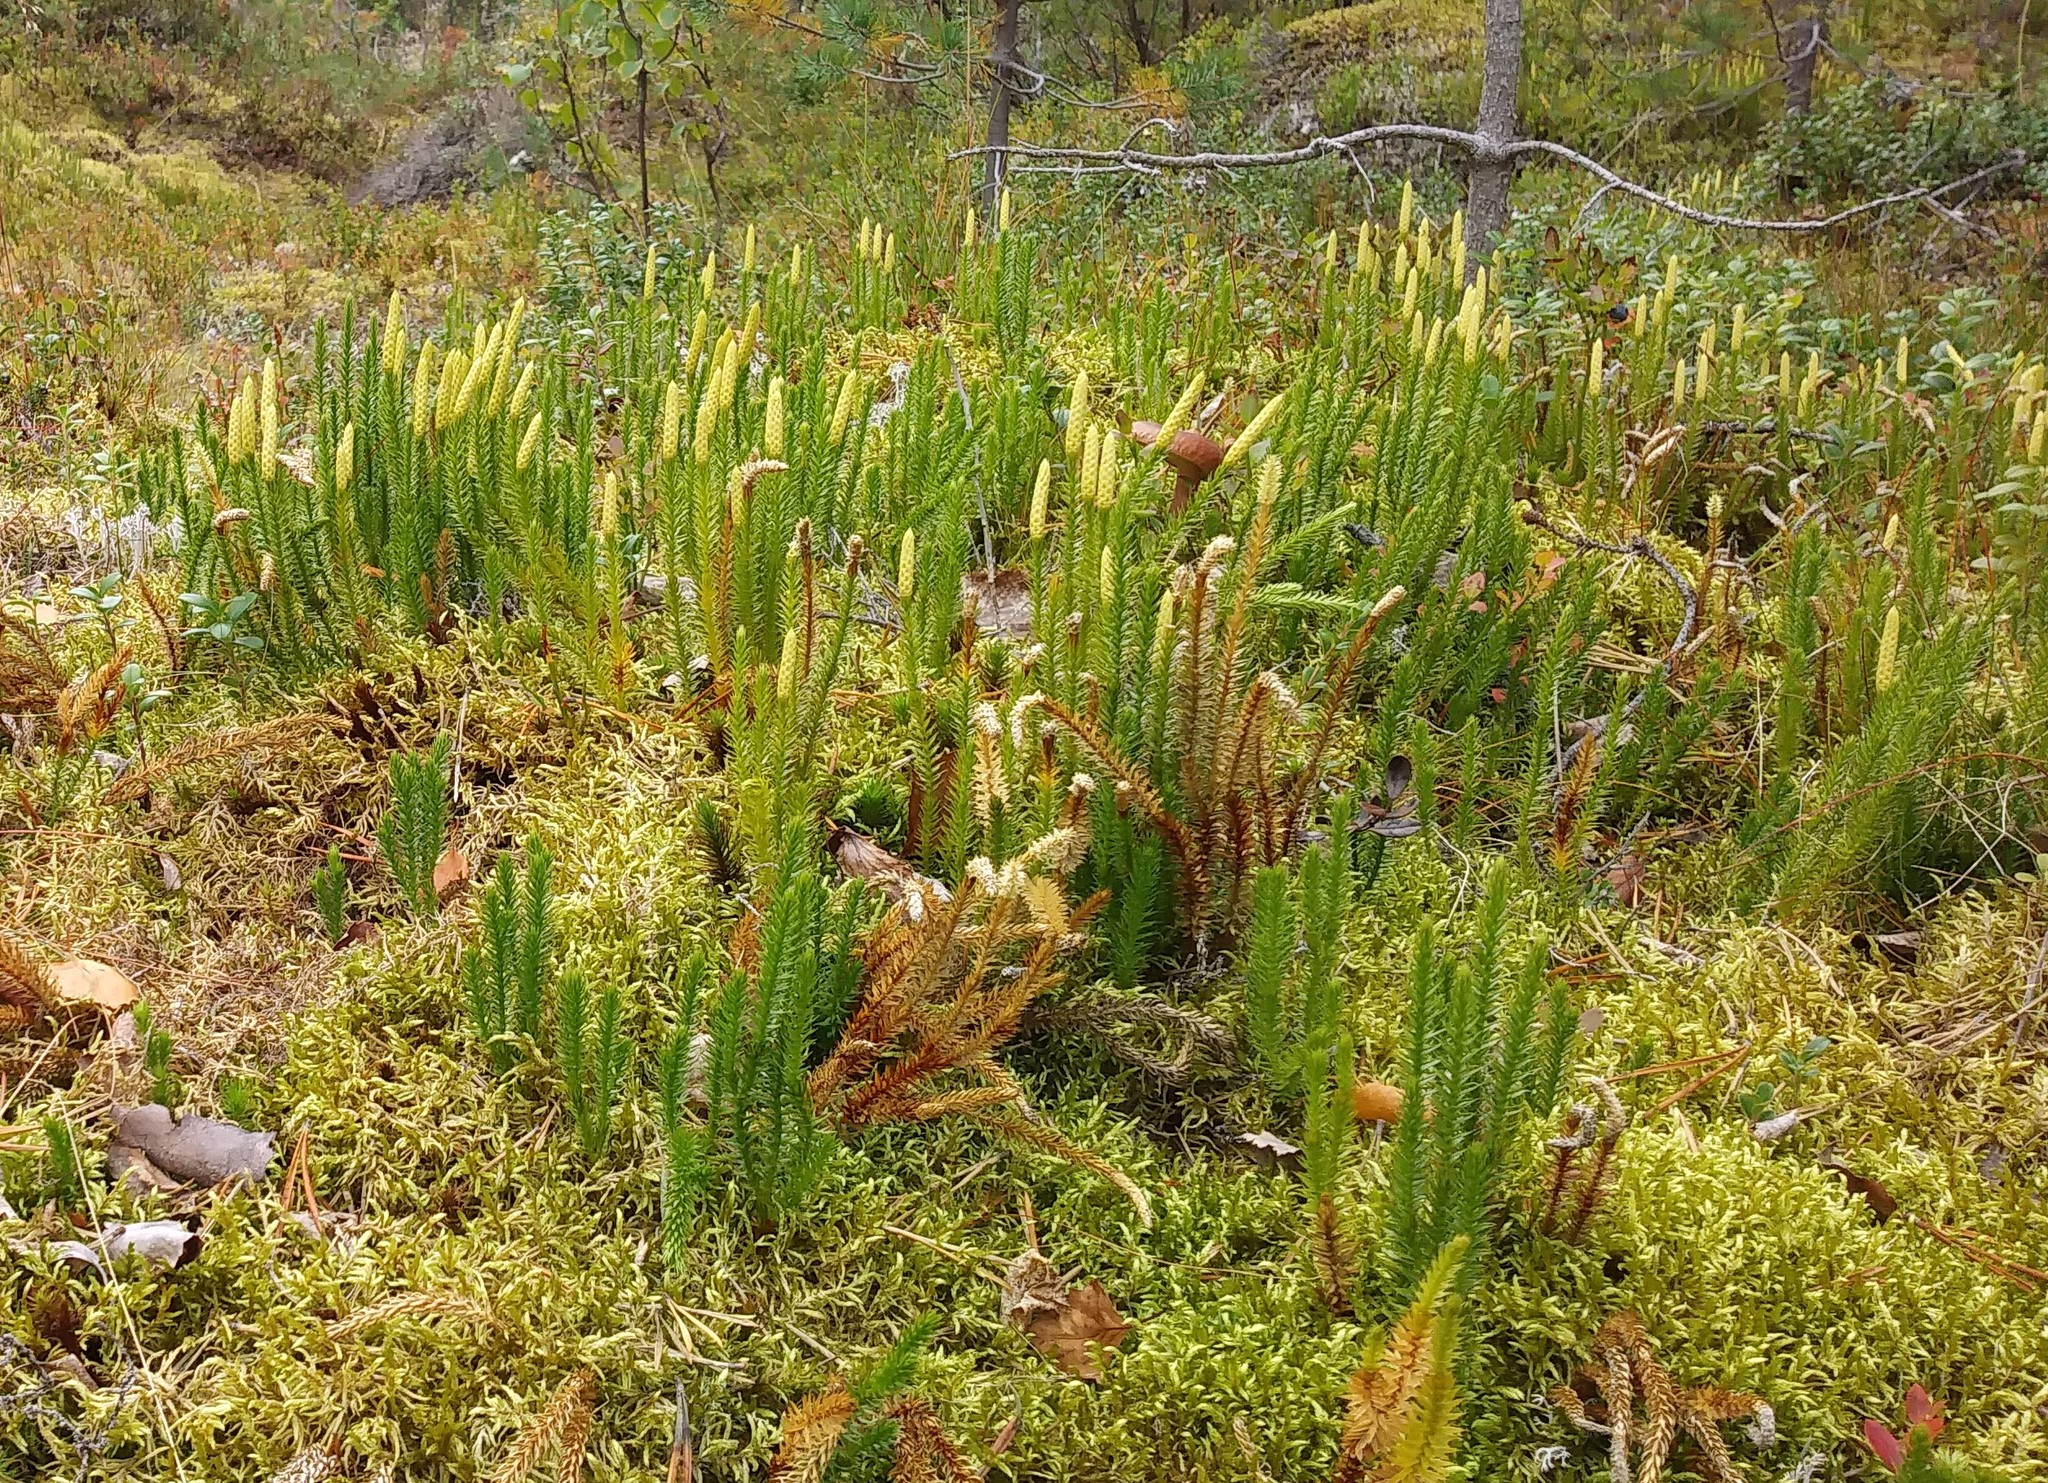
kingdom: Plantae
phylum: Tracheophyta
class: Lycopodiopsida
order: Lycopodiales
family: Lycopodiaceae
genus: Spinulum
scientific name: Spinulum annotinum
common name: Interrupted club-moss
